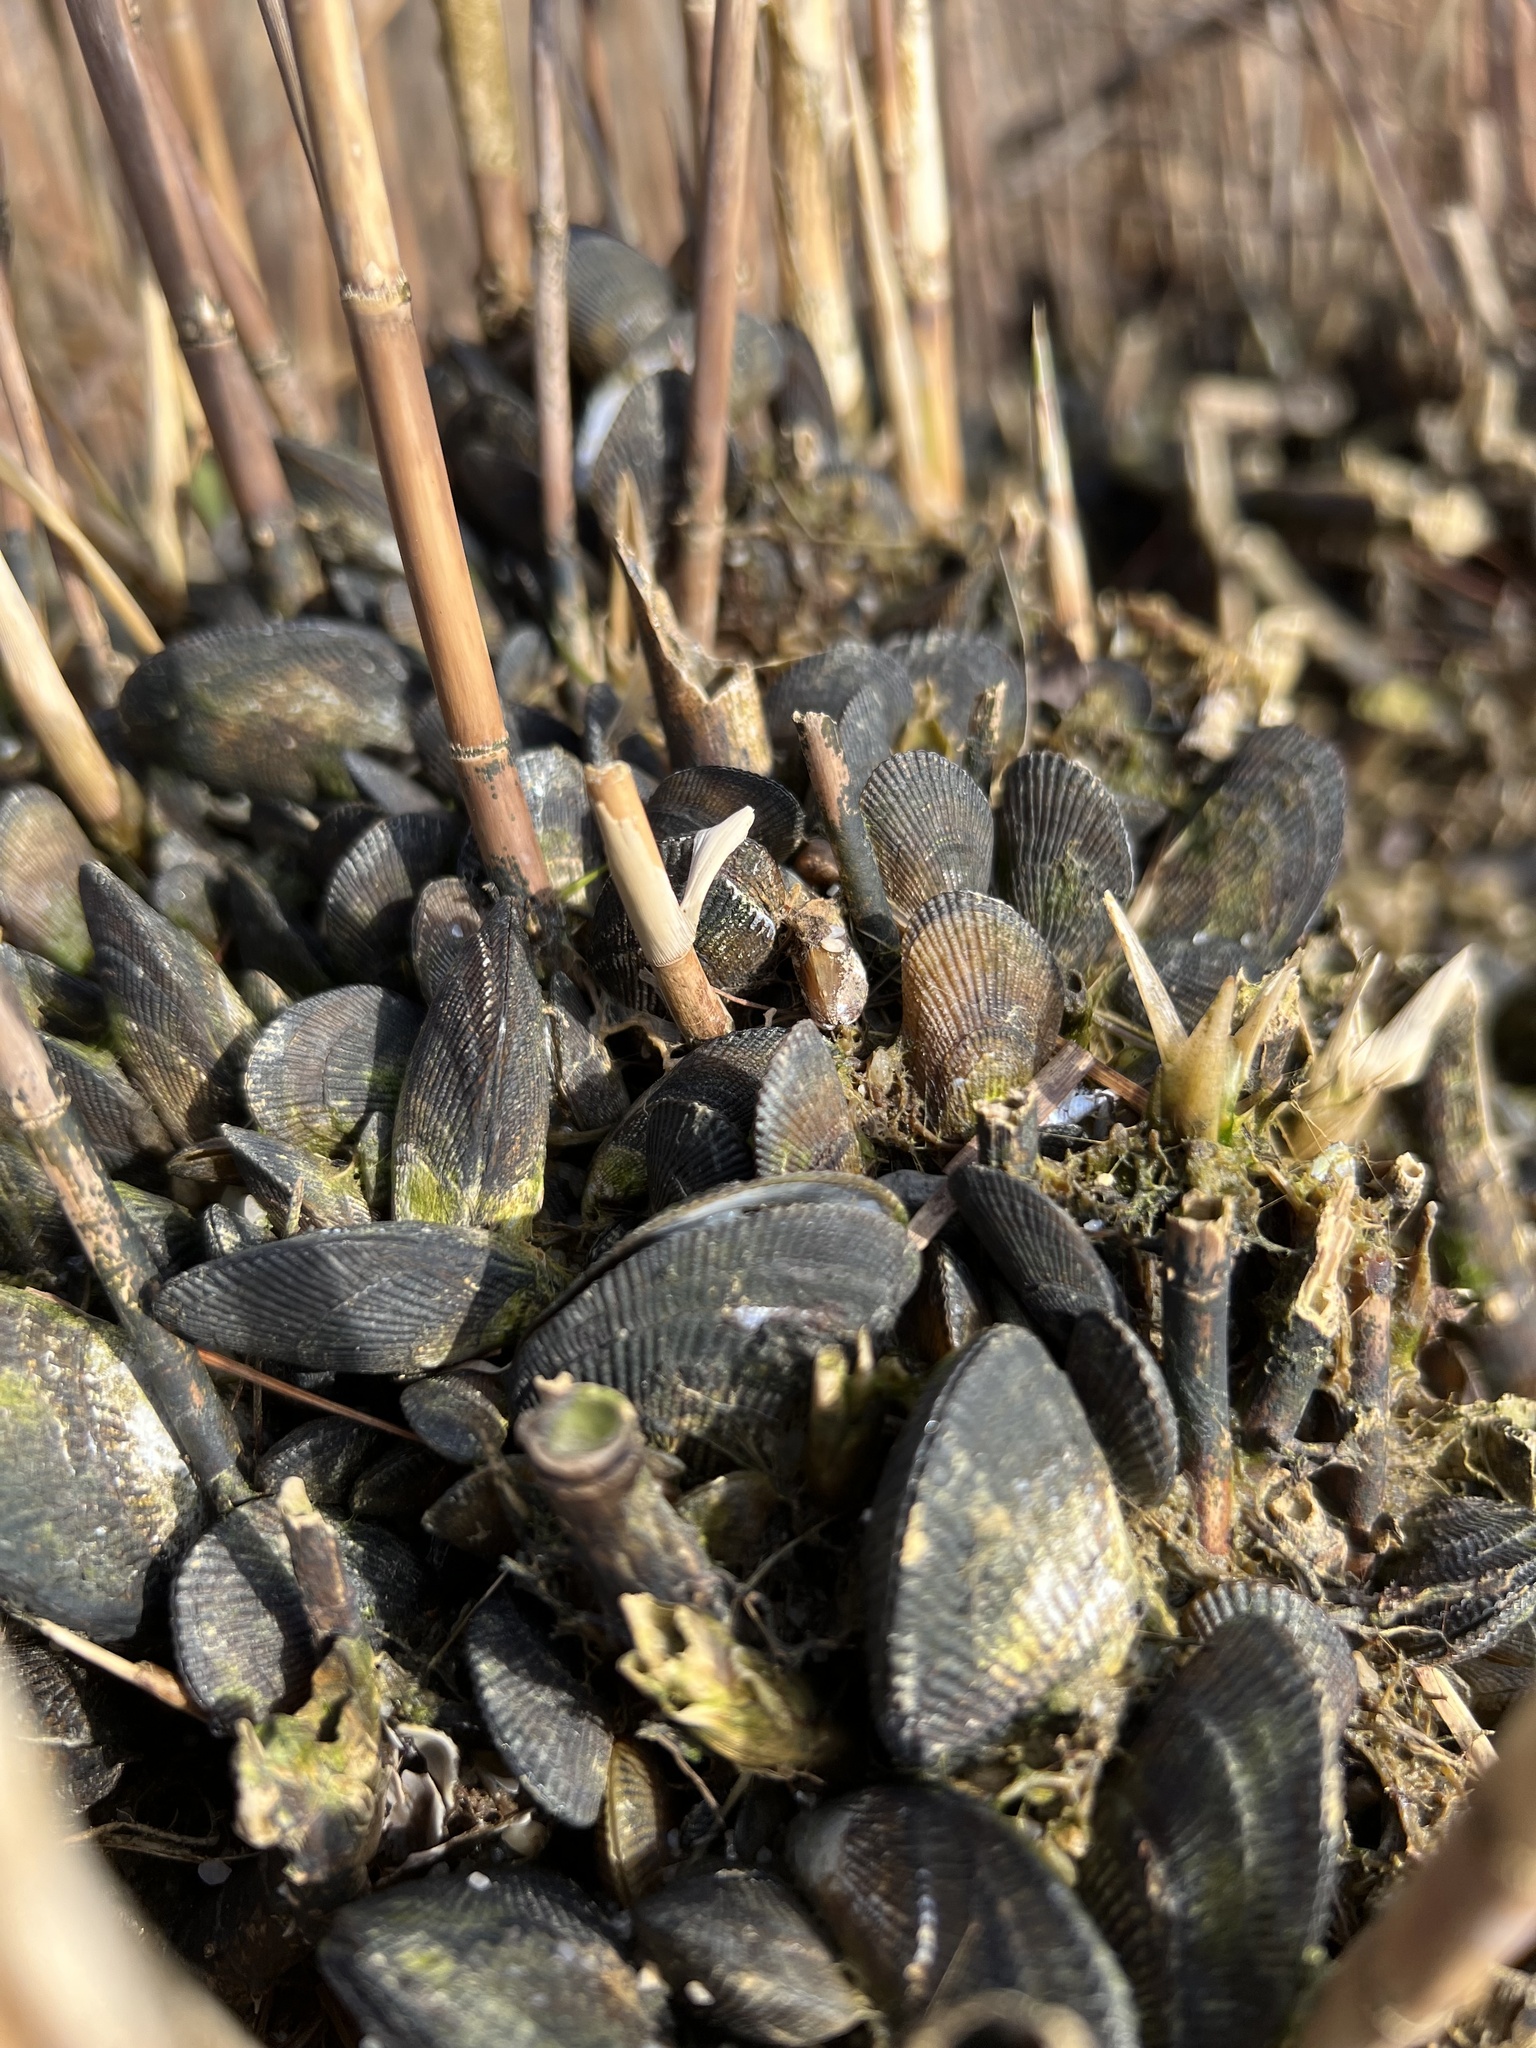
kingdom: Animalia
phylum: Mollusca
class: Bivalvia
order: Mytilida
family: Mytilidae
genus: Geukensia
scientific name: Geukensia demissa
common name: Ribbed mussel
